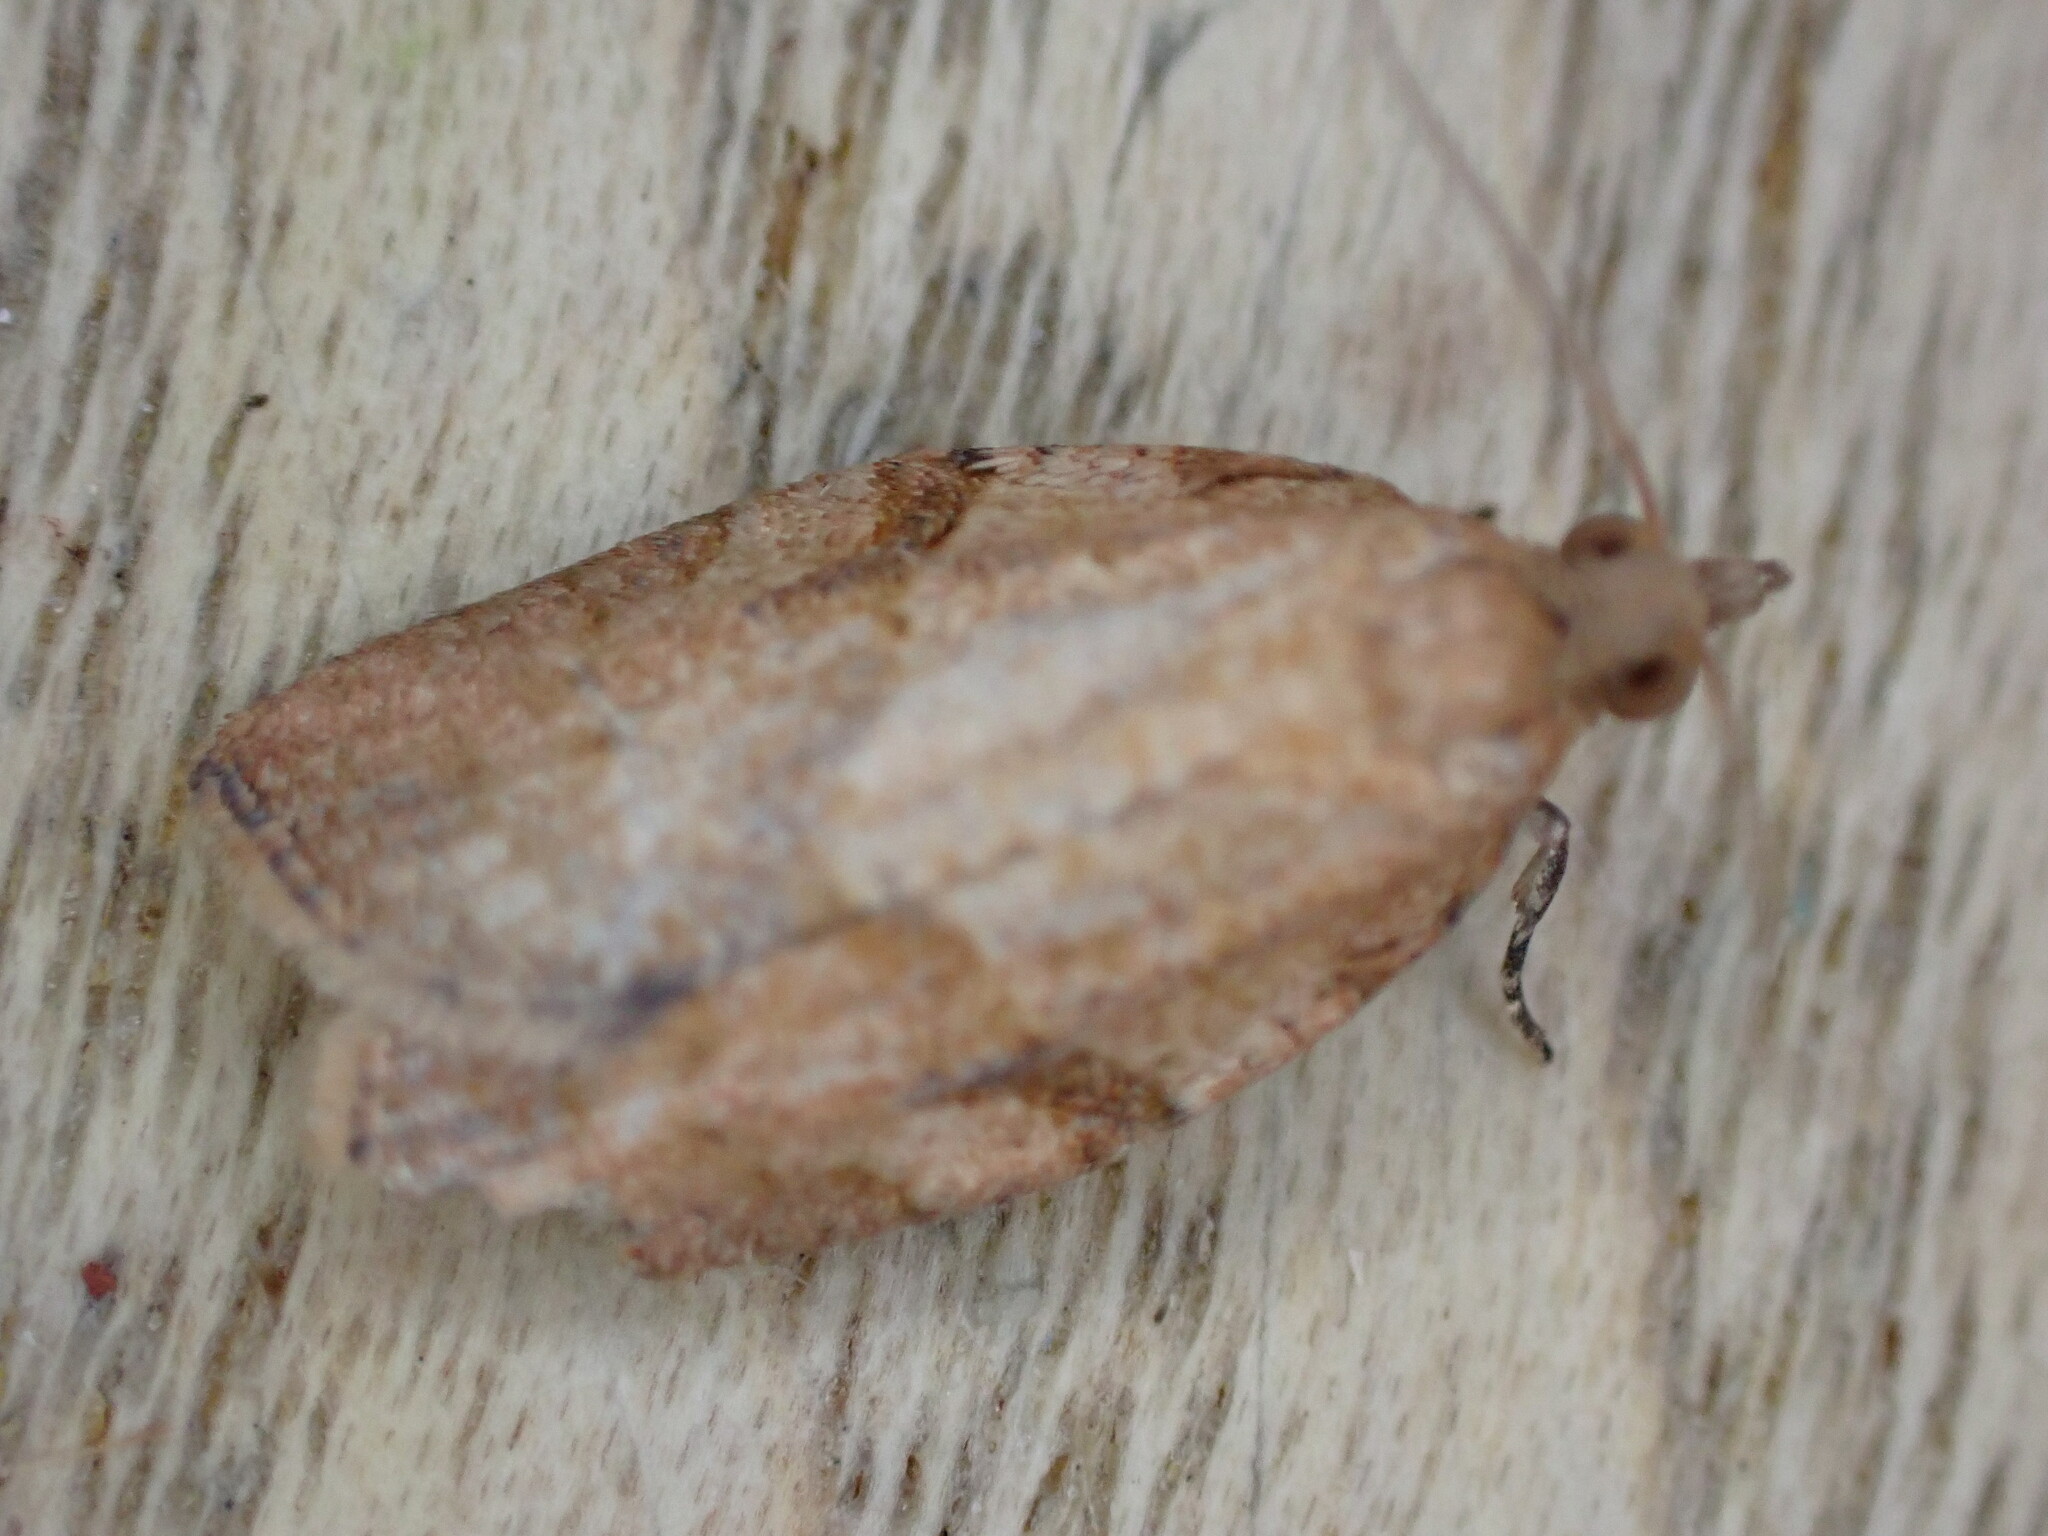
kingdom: Animalia
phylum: Arthropoda
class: Insecta
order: Lepidoptera
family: Tortricidae
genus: Epiphyas
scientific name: Epiphyas postvittana
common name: Light brown apple moth
